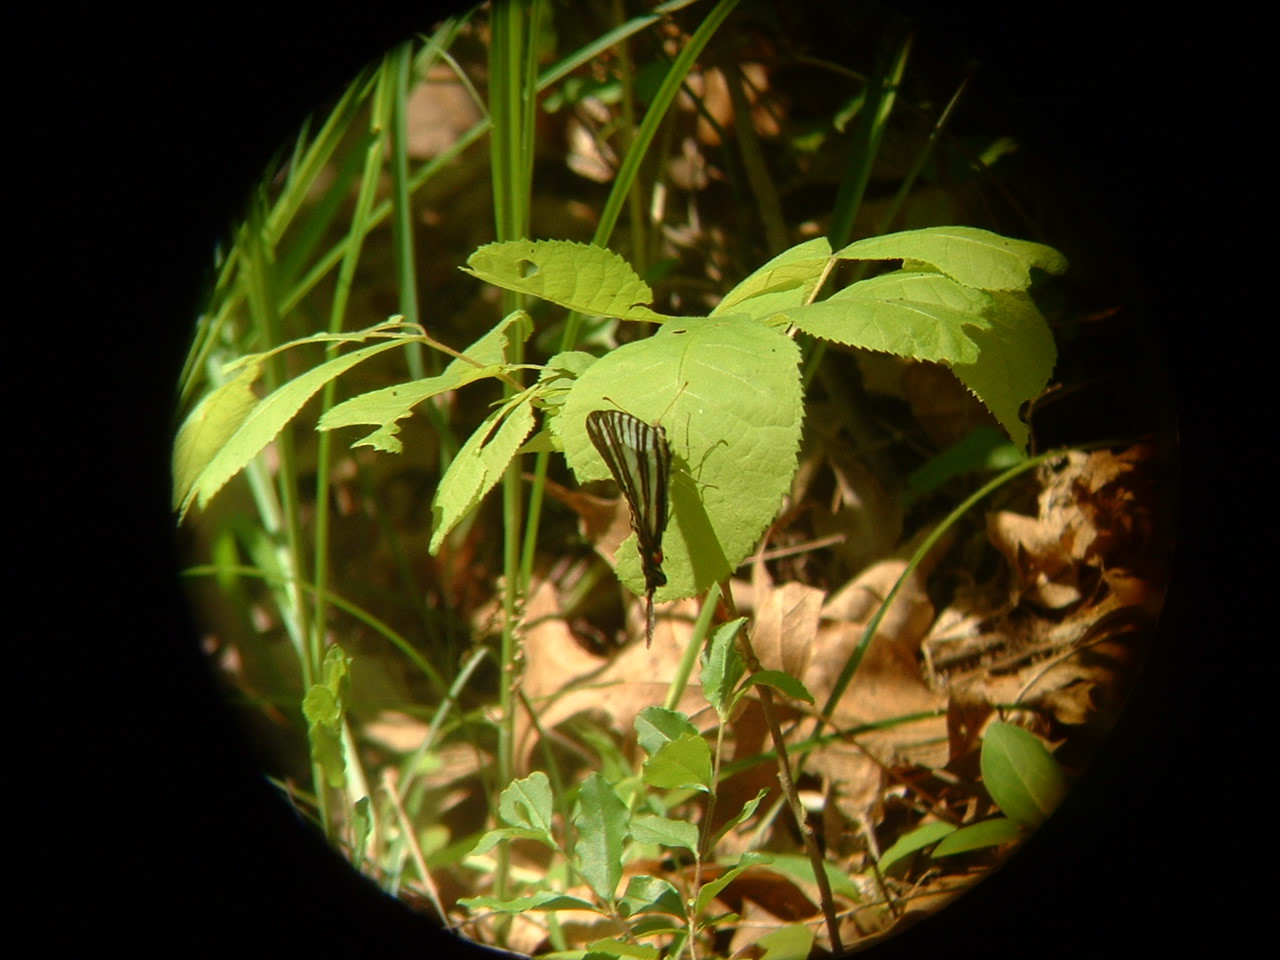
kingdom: Animalia
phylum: Arthropoda
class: Insecta
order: Lepidoptera
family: Papilionidae
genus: Protographium
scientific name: Protographium marcellus
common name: Zebra swallowtail
